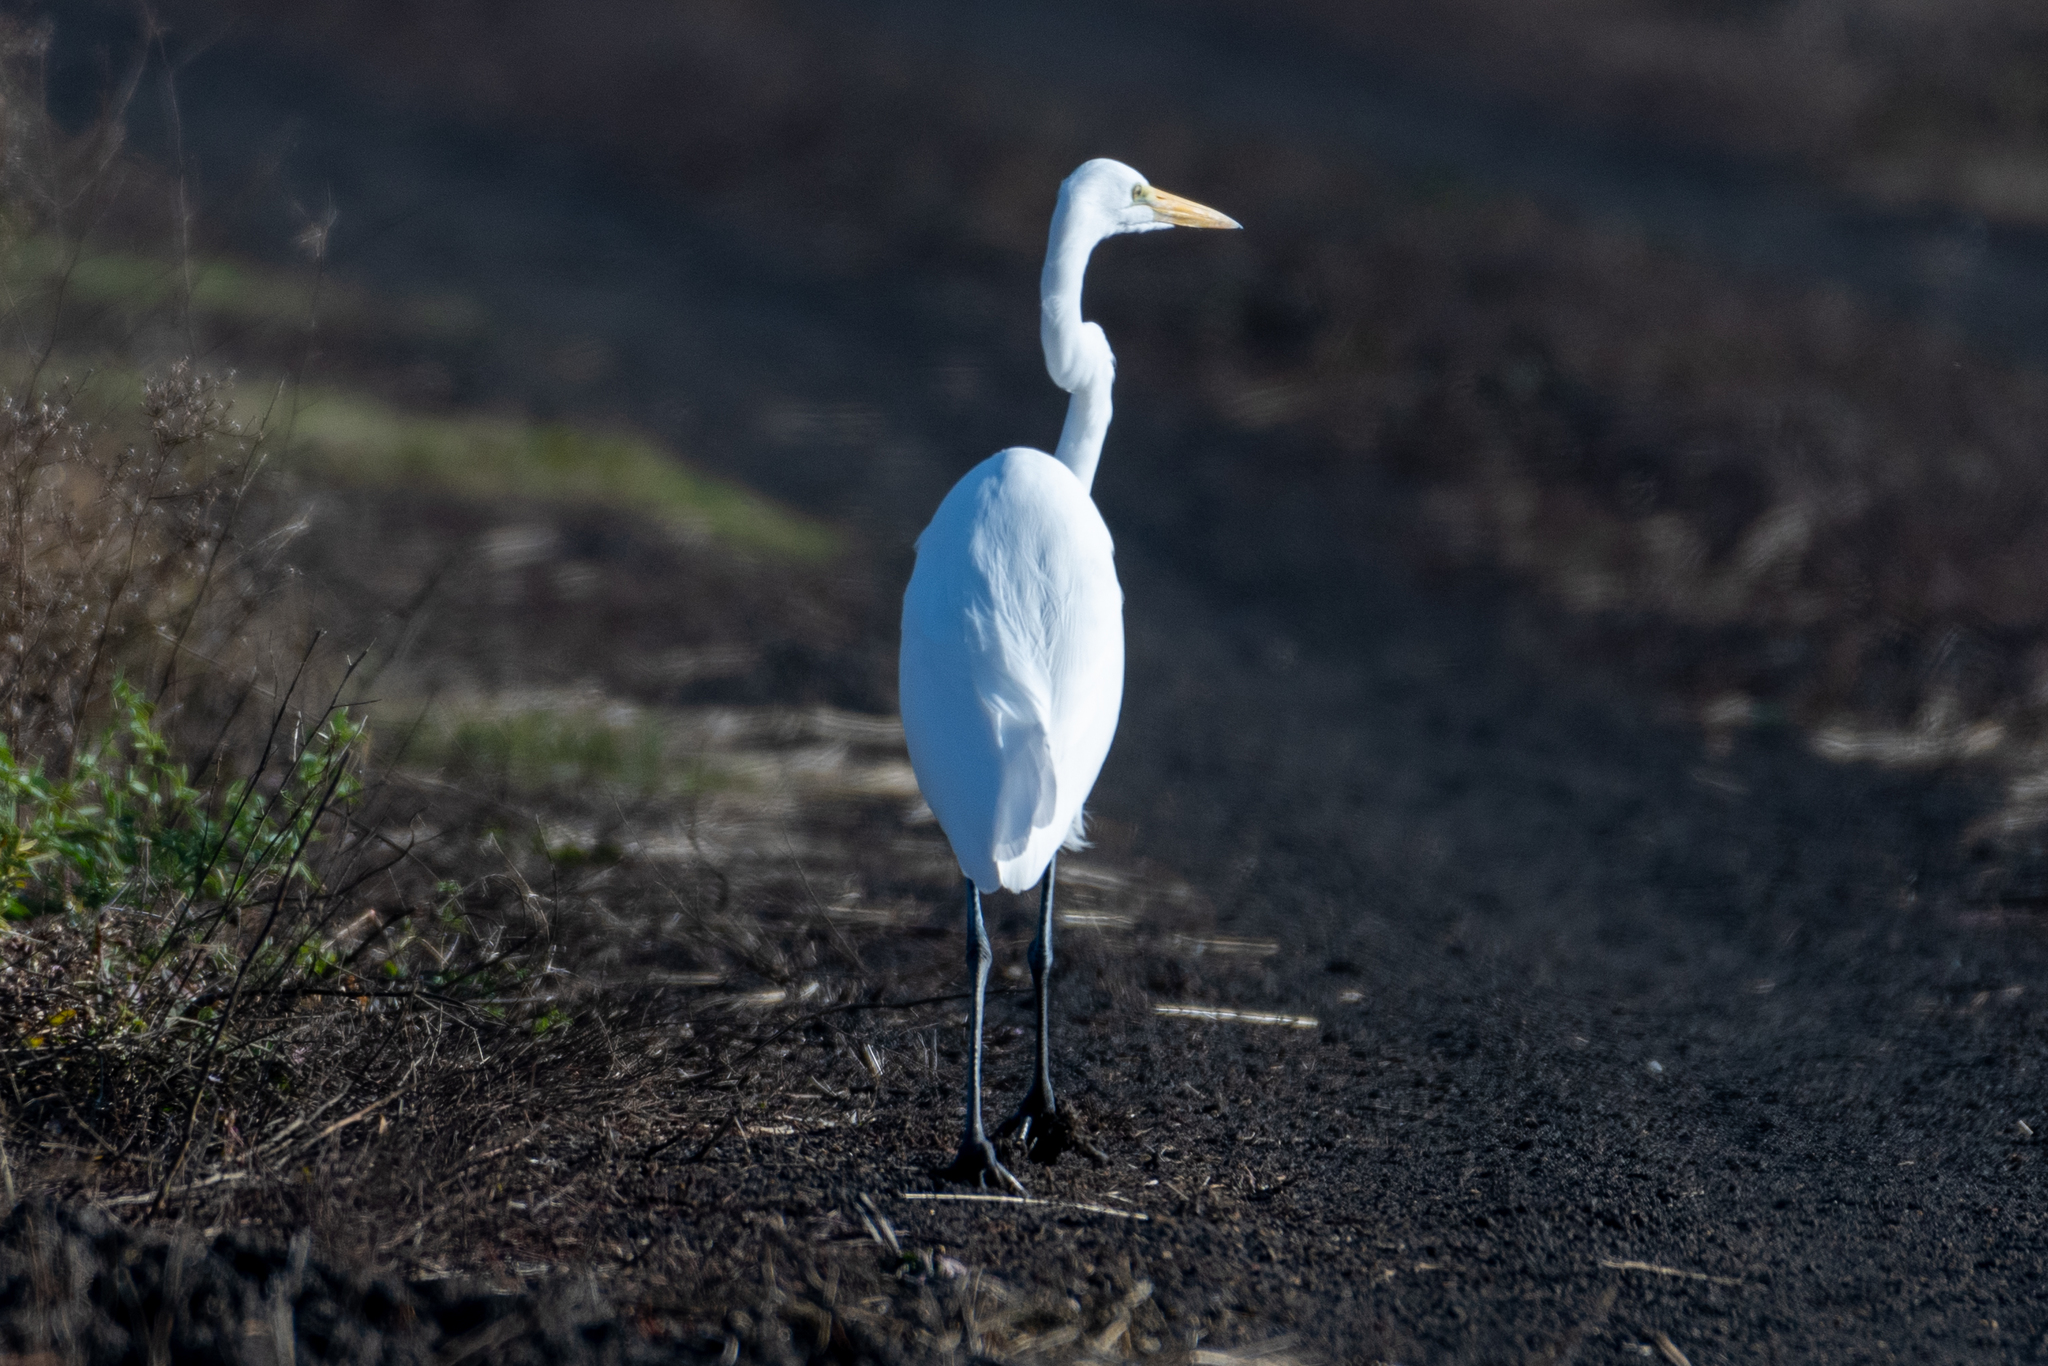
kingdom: Animalia
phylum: Chordata
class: Aves
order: Pelecaniformes
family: Ardeidae
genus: Ardea
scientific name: Ardea alba
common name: Great egret
